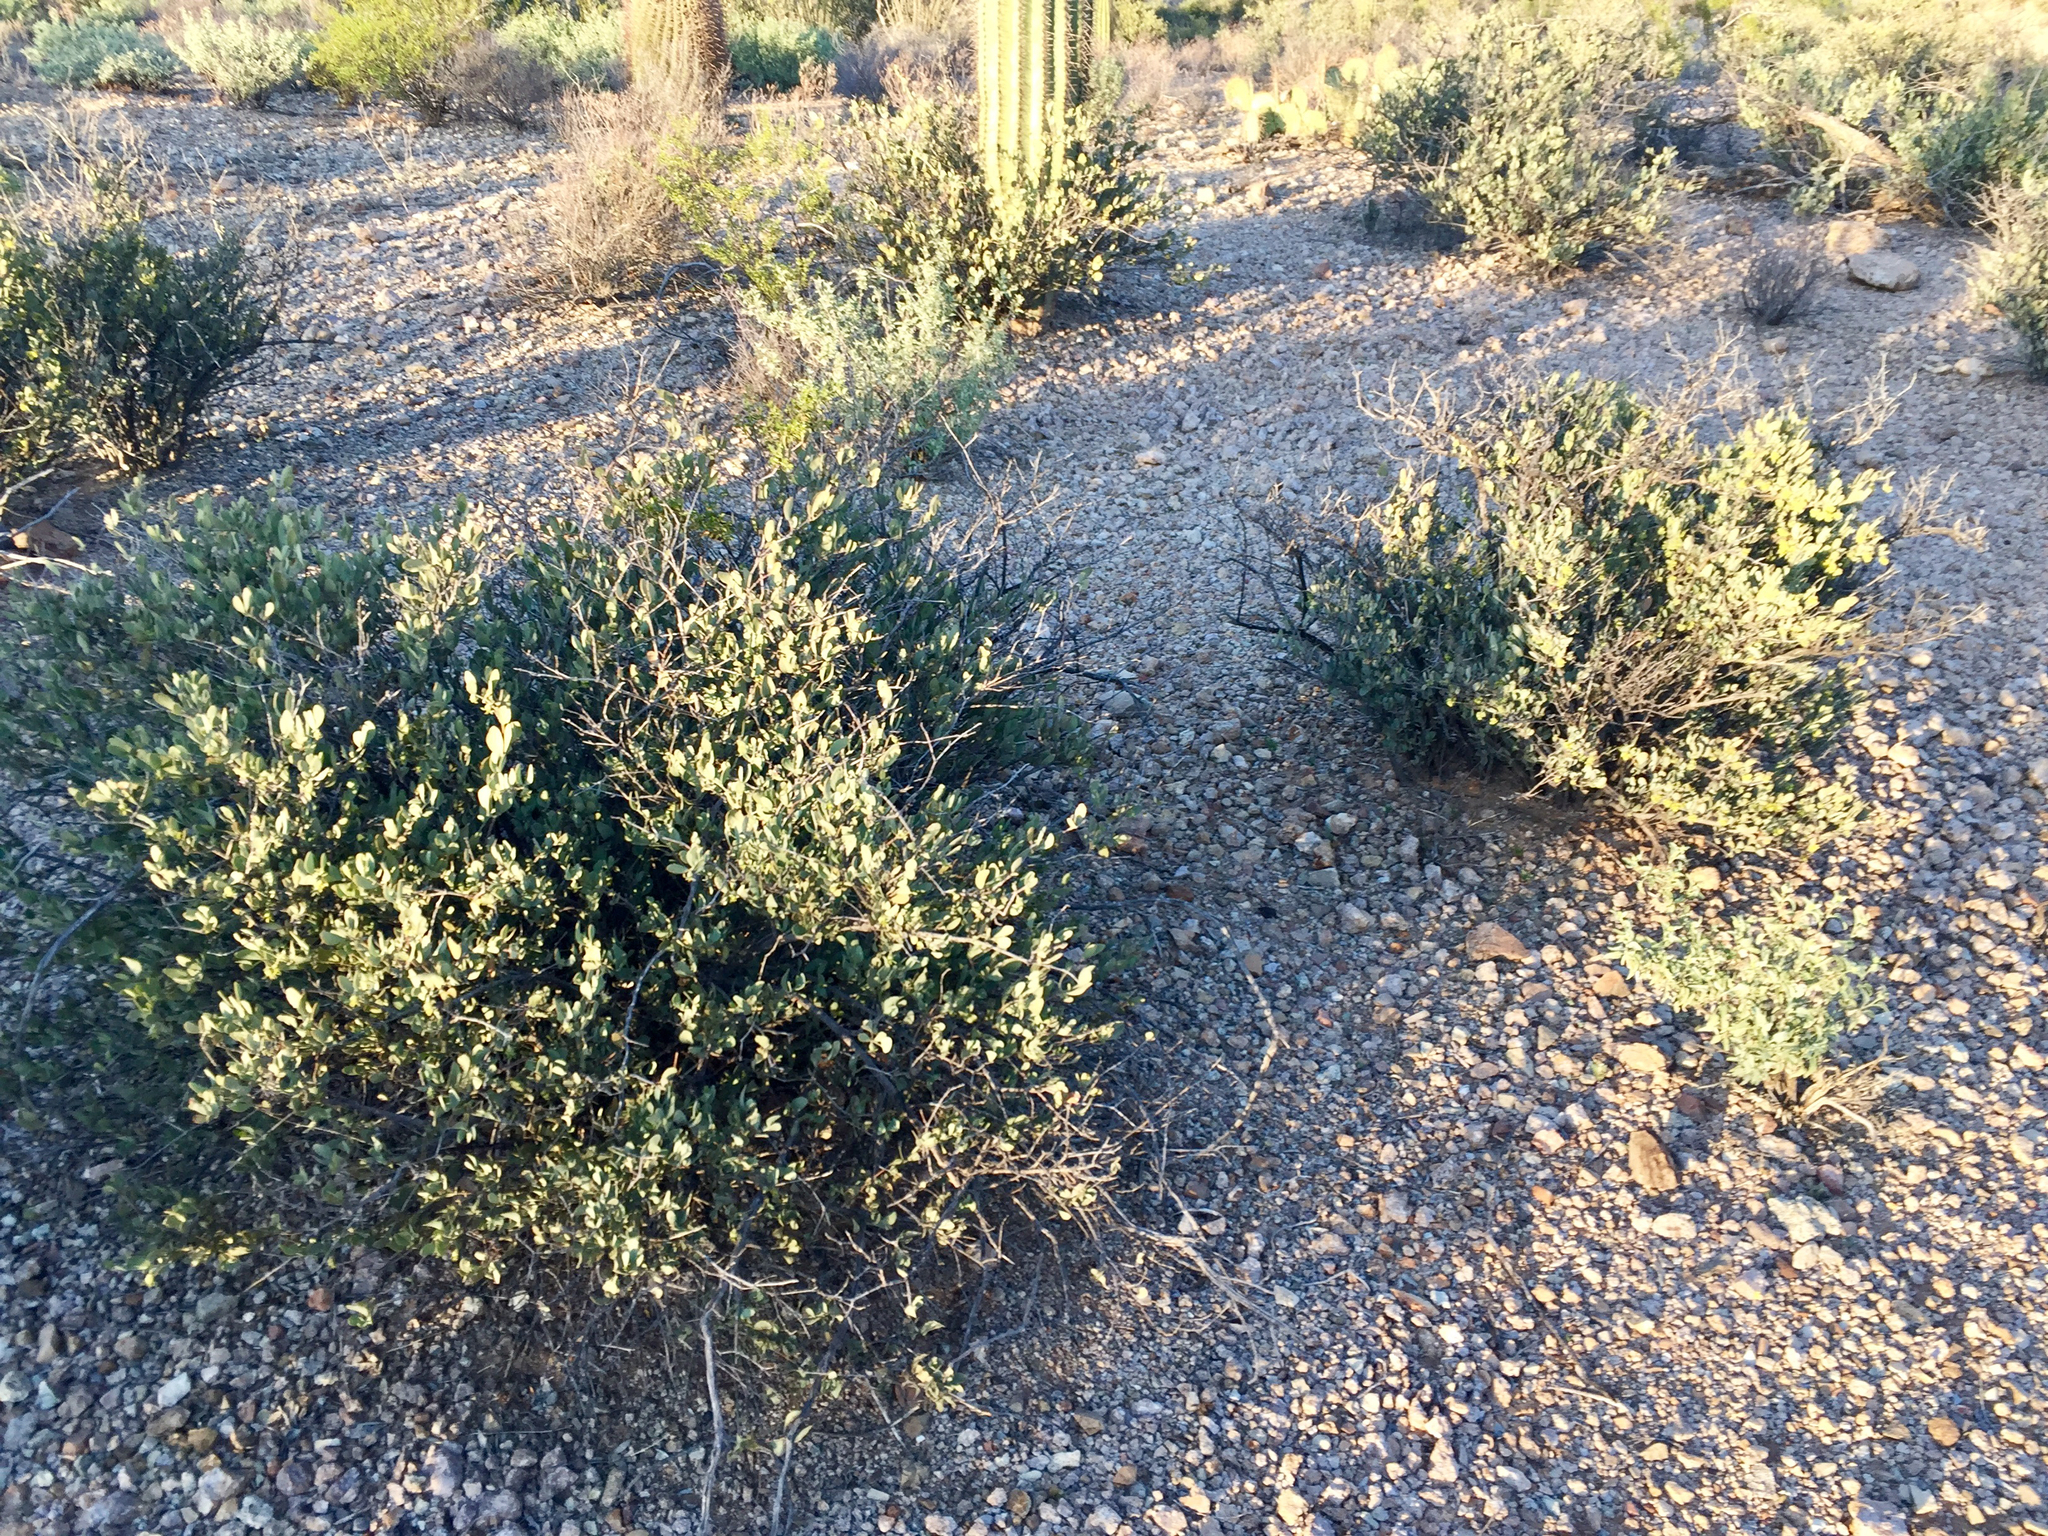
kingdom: Plantae
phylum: Tracheophyta
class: Magnoliopsida
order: Caryophyllales
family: Simmondsiaceae
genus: Simmondsia
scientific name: Simmondsia chinensis
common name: Jojoba
